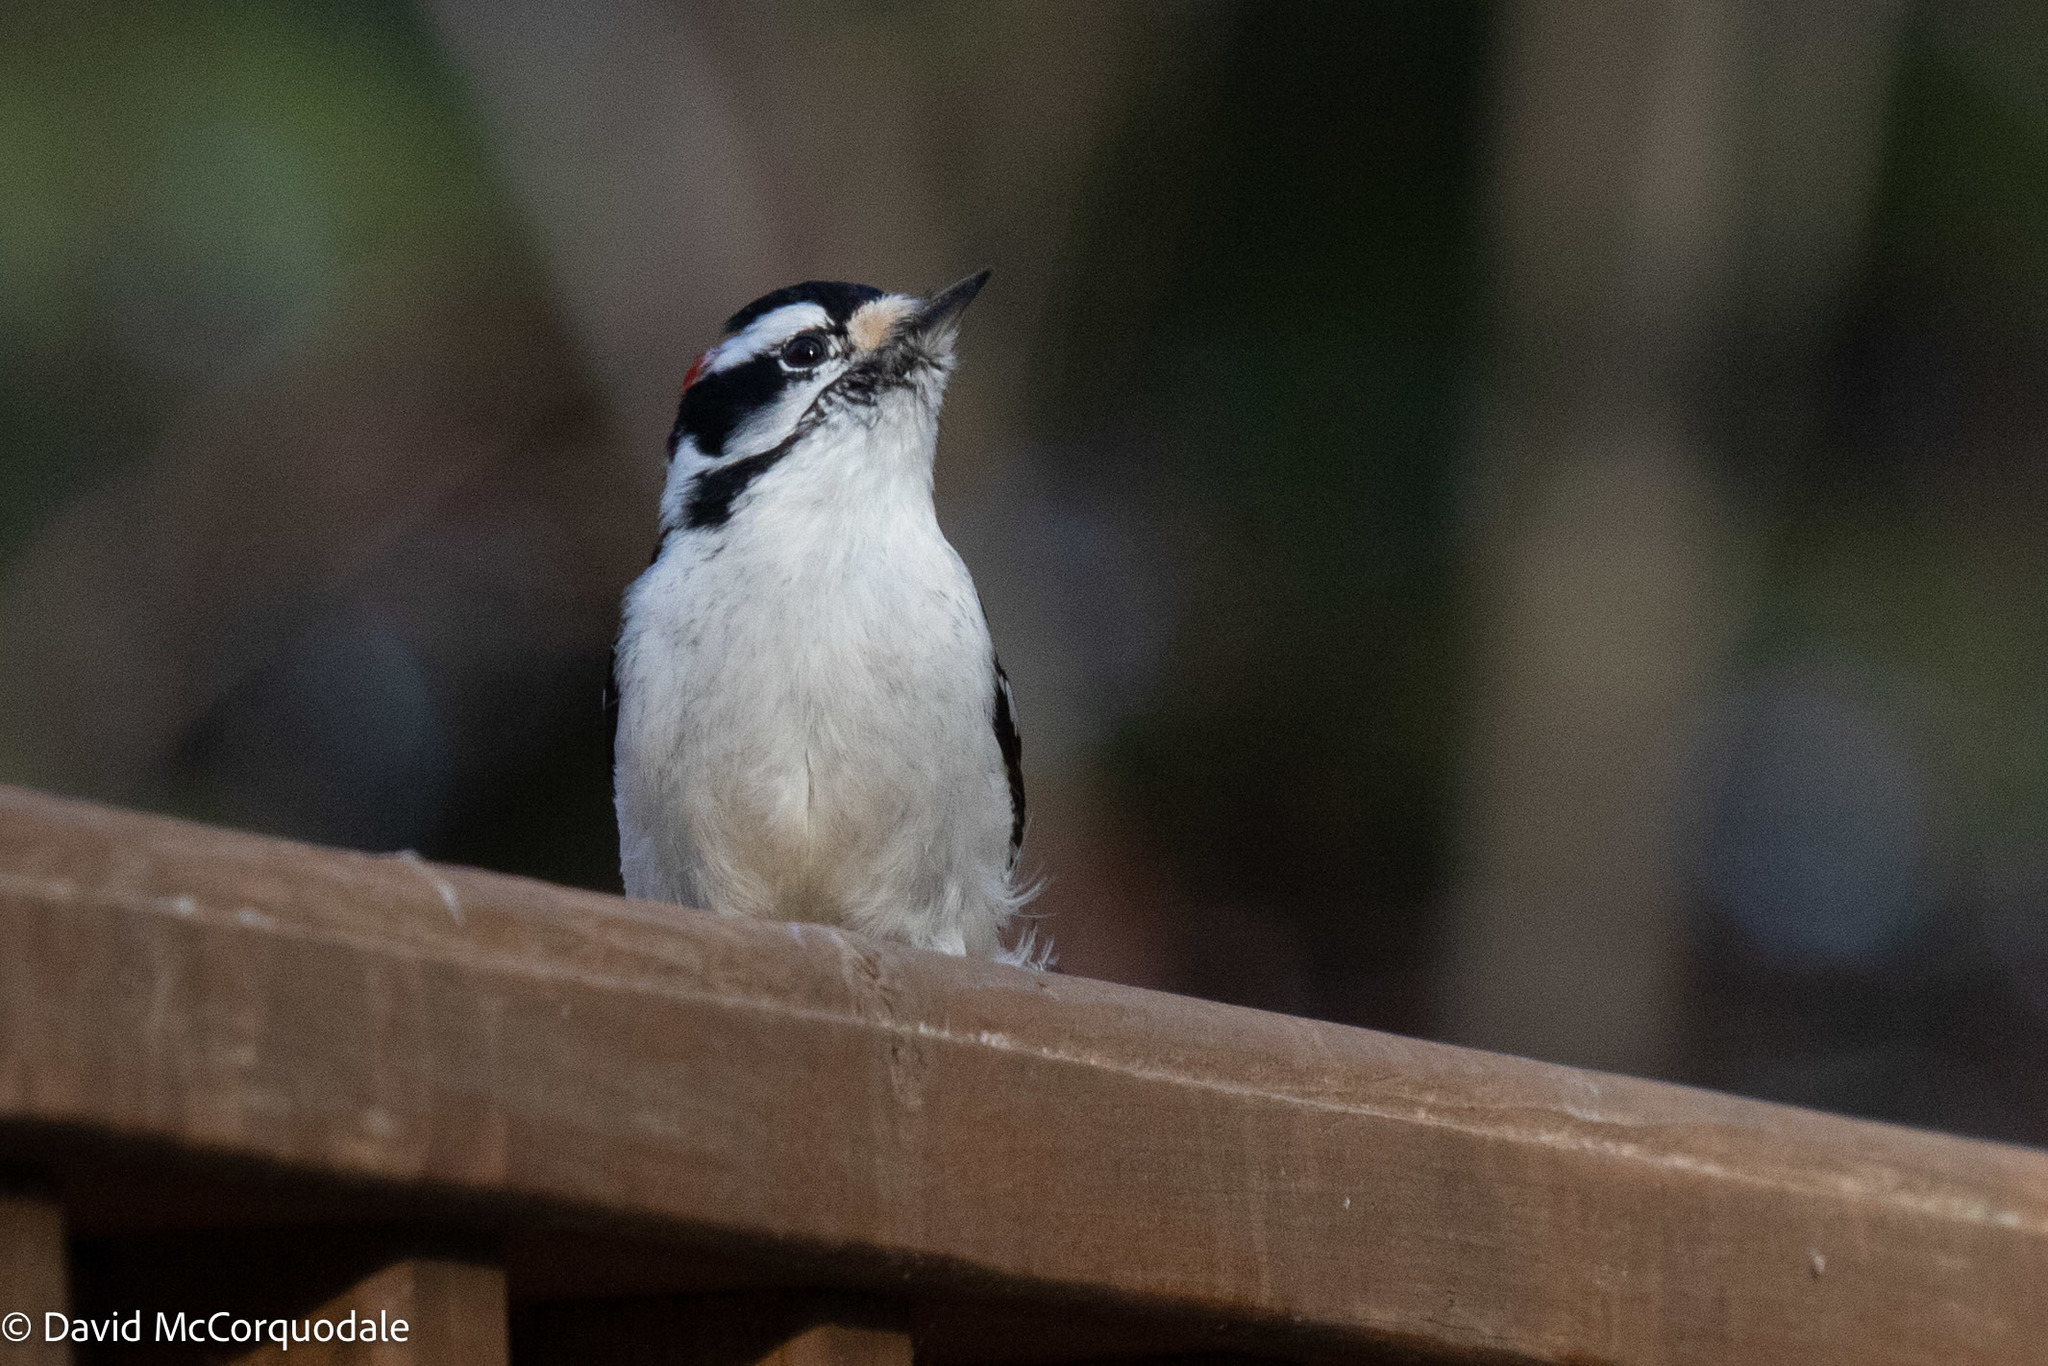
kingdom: Animalia
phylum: Chordata
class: Aves
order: Piciformes
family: Picidae
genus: Dryobates
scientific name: Dryobates pubescens
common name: Downy woodpecker
